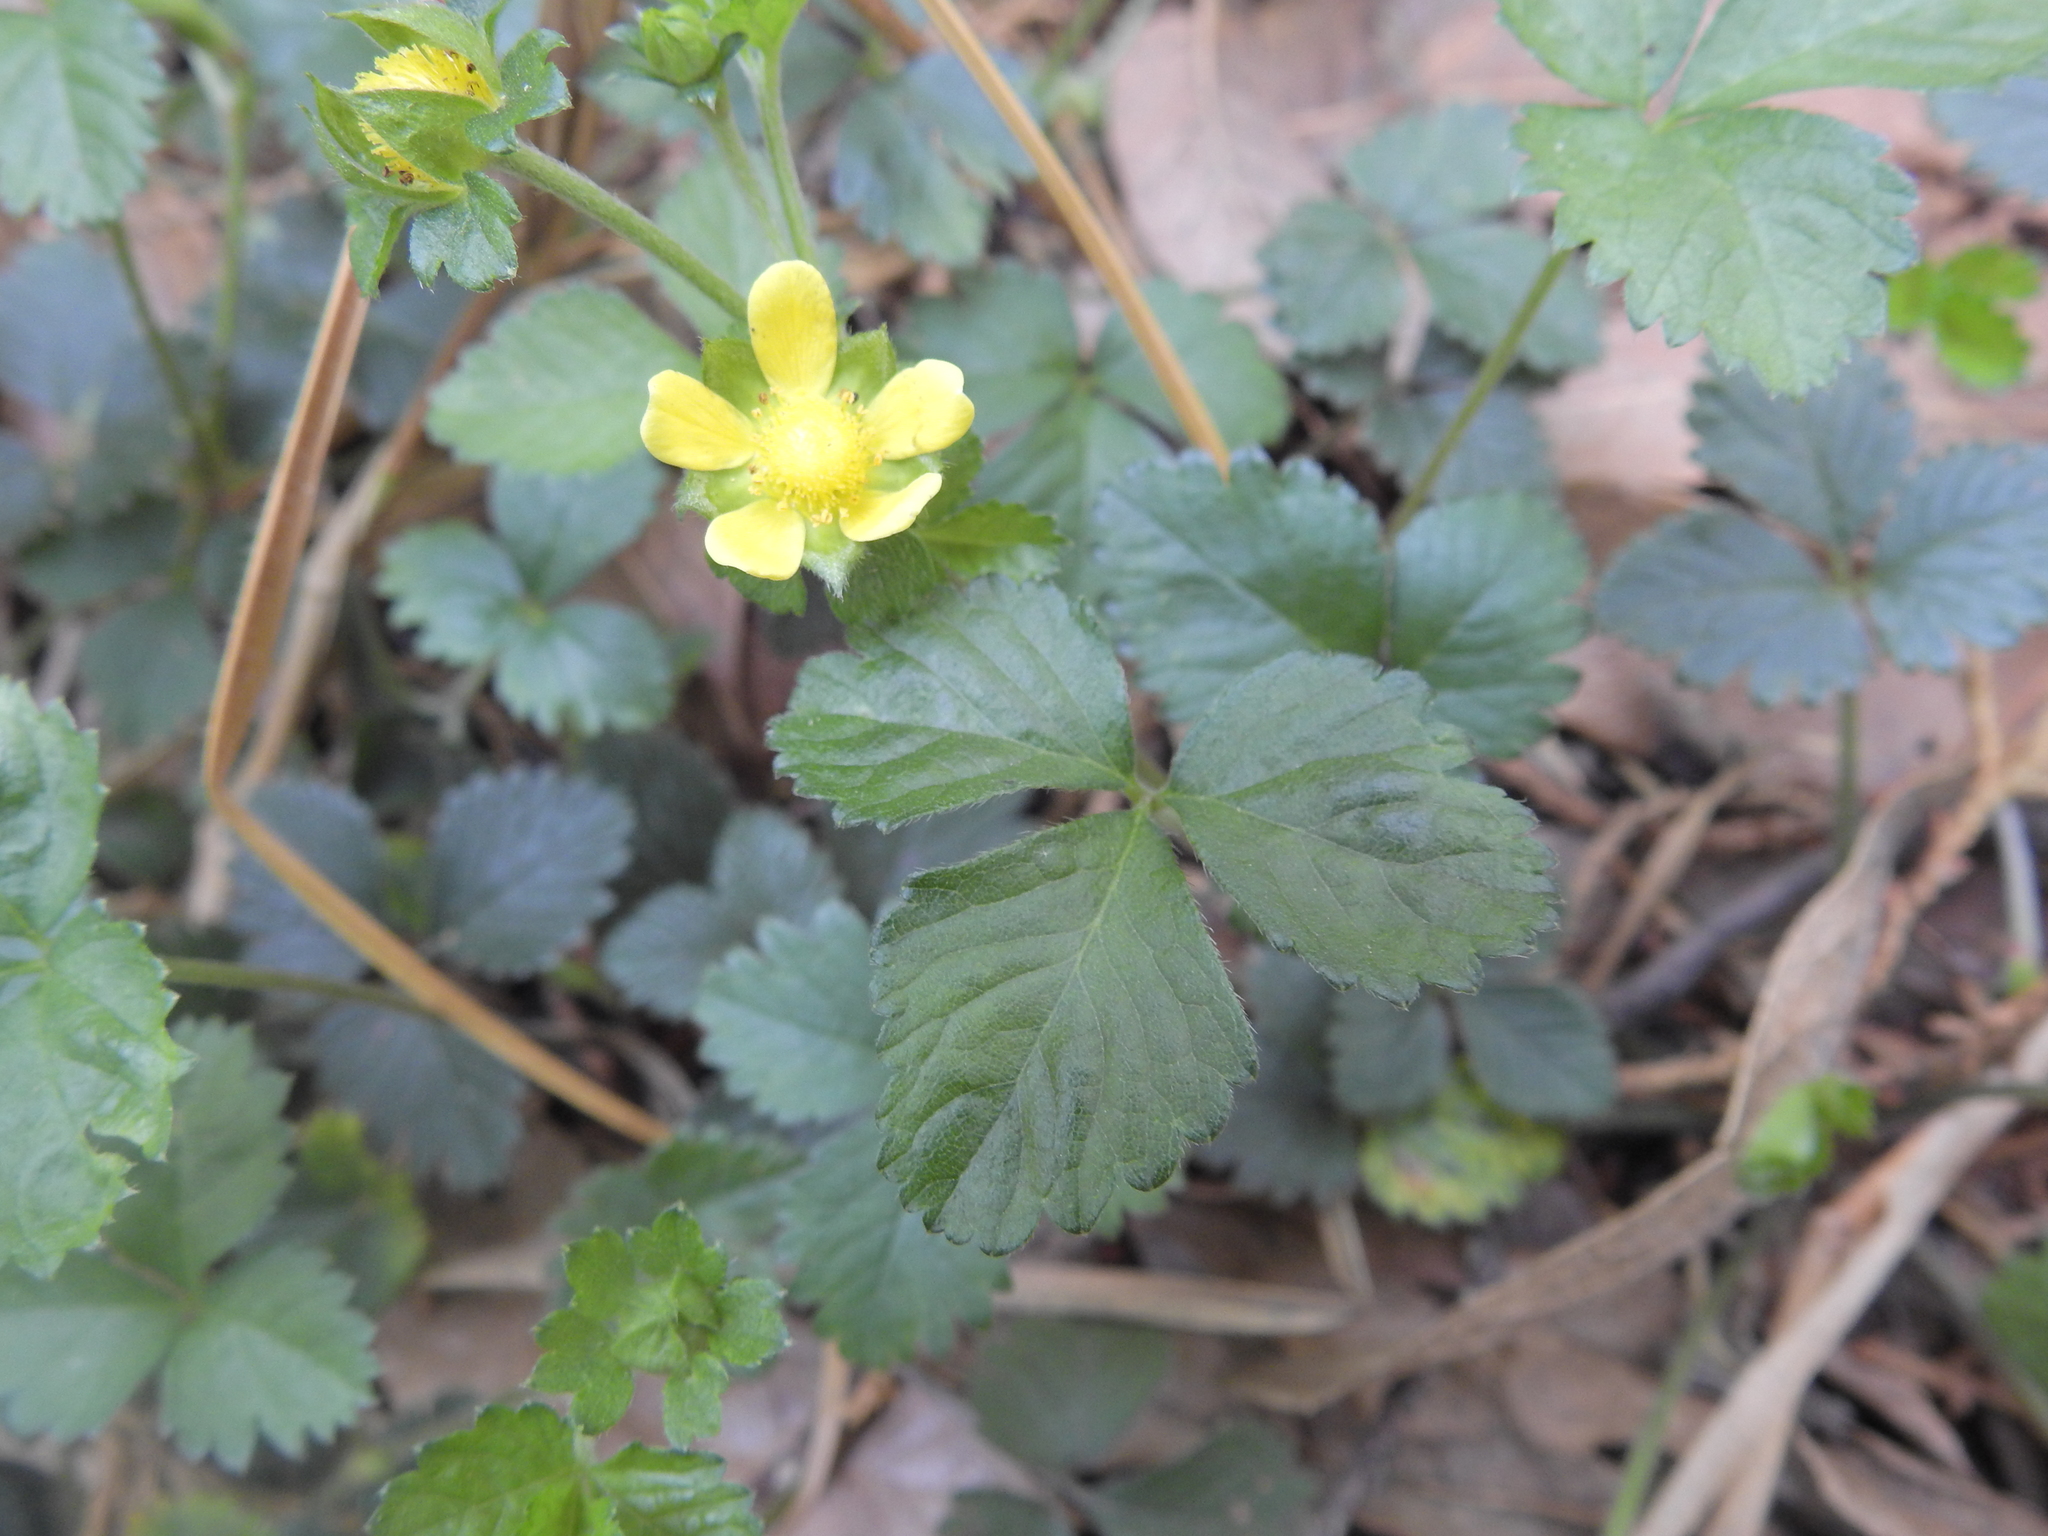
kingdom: Plantae
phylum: Tracheophyta
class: Magnoliopsida
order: Rosales
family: Rosaceae
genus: Potentilla
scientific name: Potentilla indica
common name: Yellow-flowered strawberry
